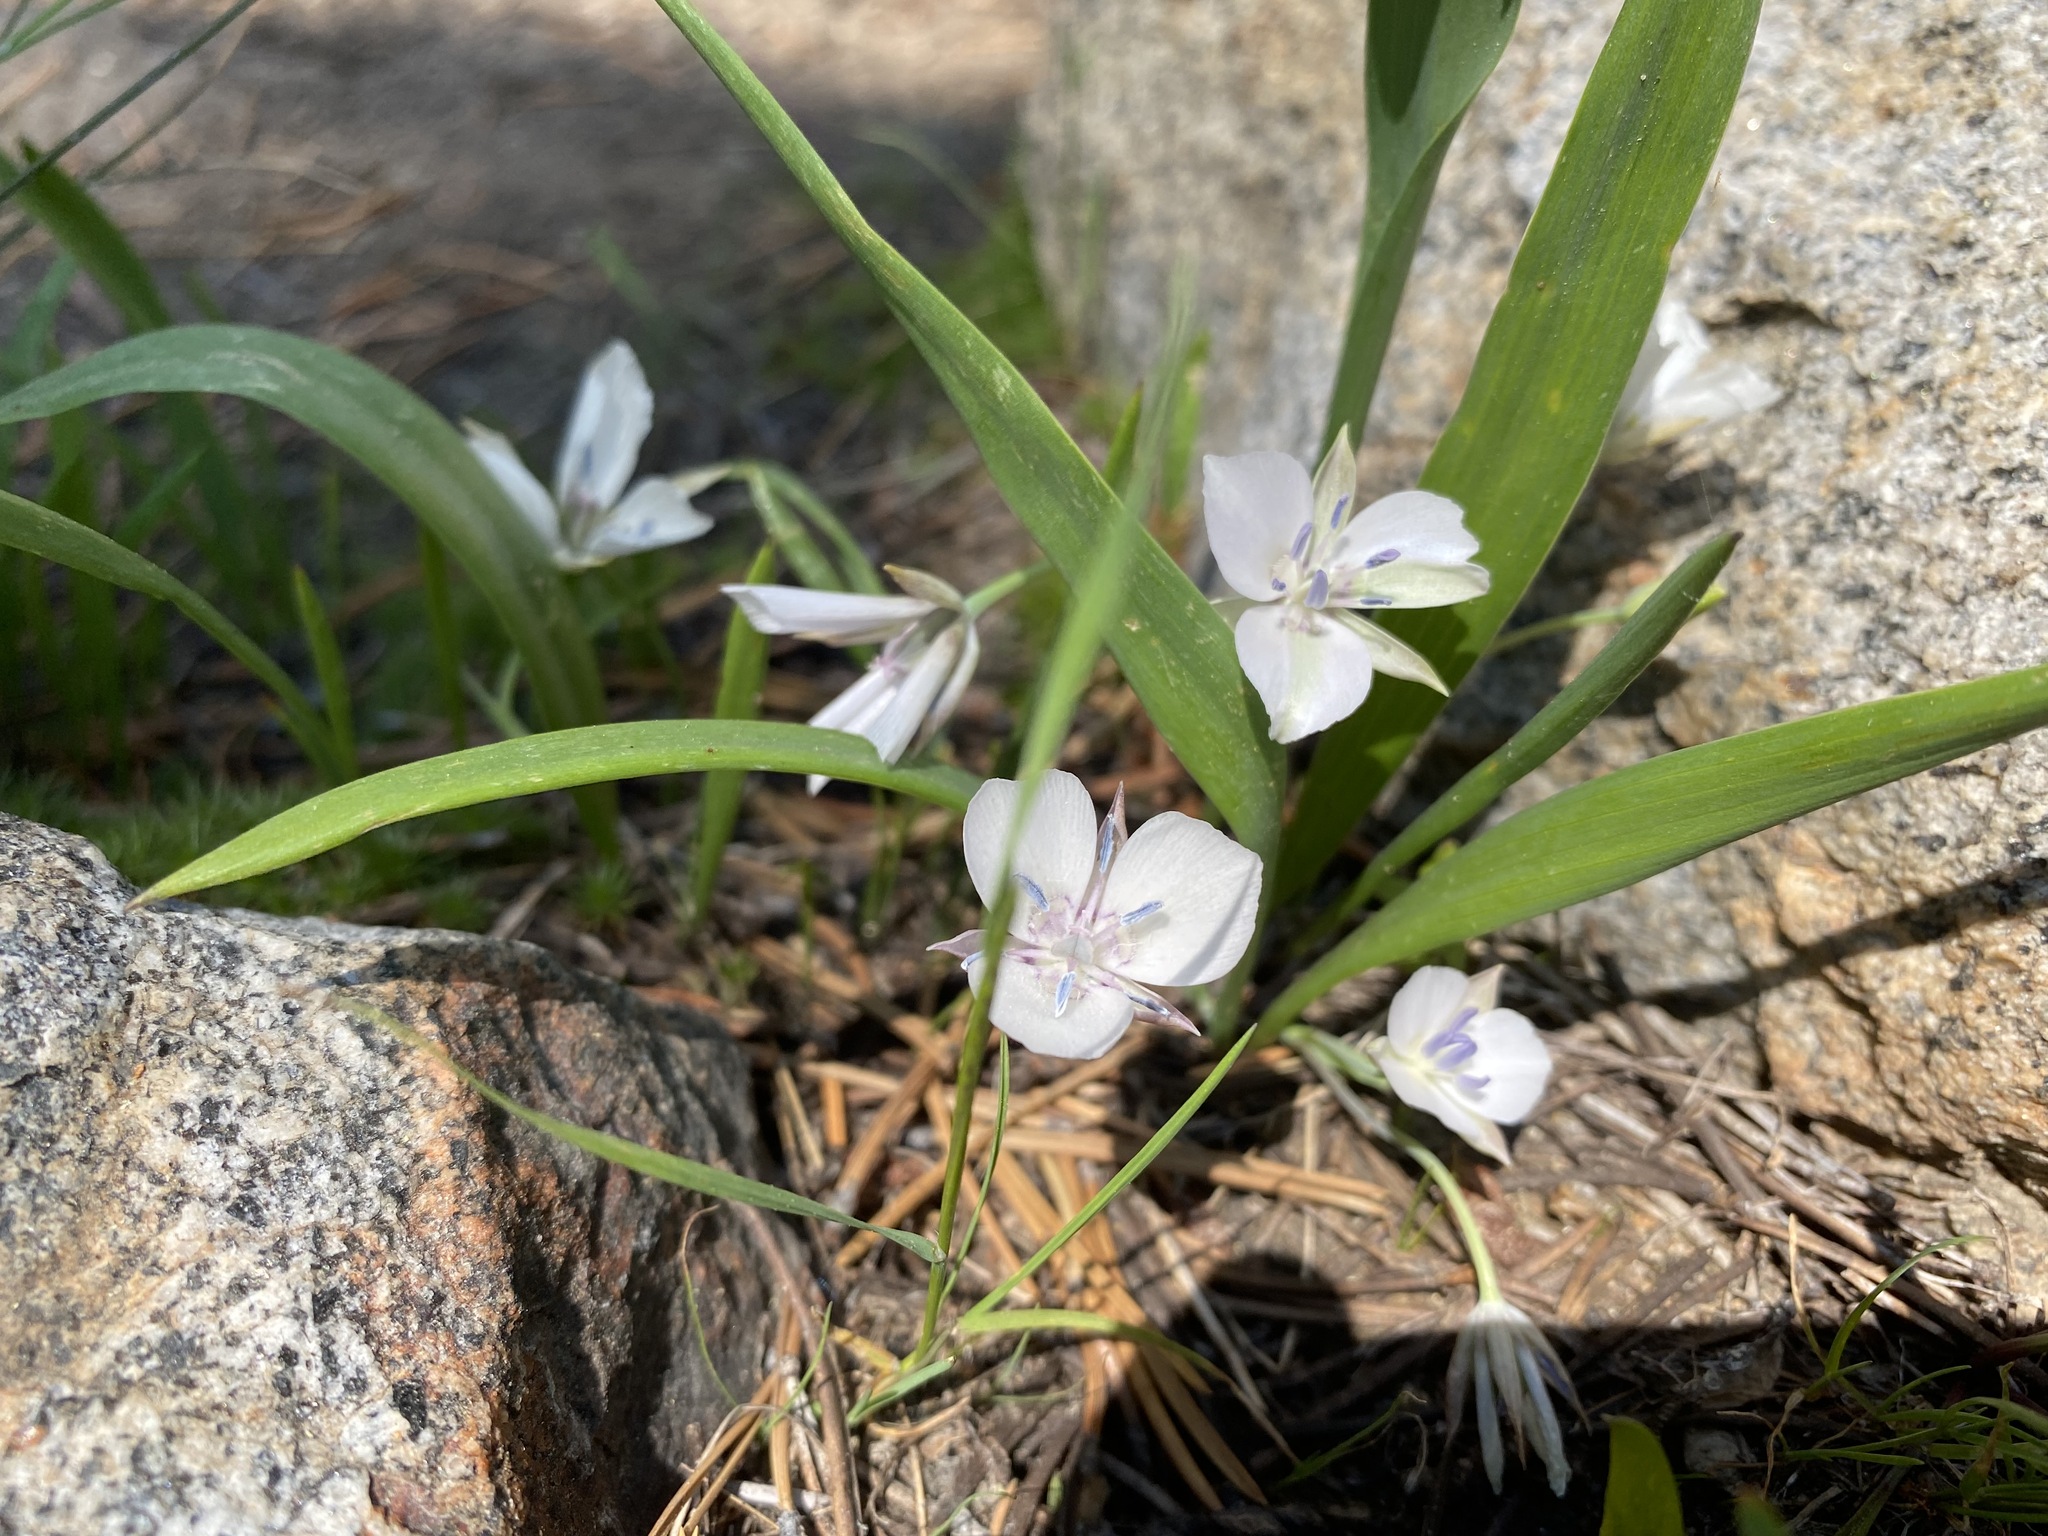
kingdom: Plantae
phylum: Tracheophyta
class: Liliopsida
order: Liliales
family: Liliaceae
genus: Calochortus
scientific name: Calochortus minimus
